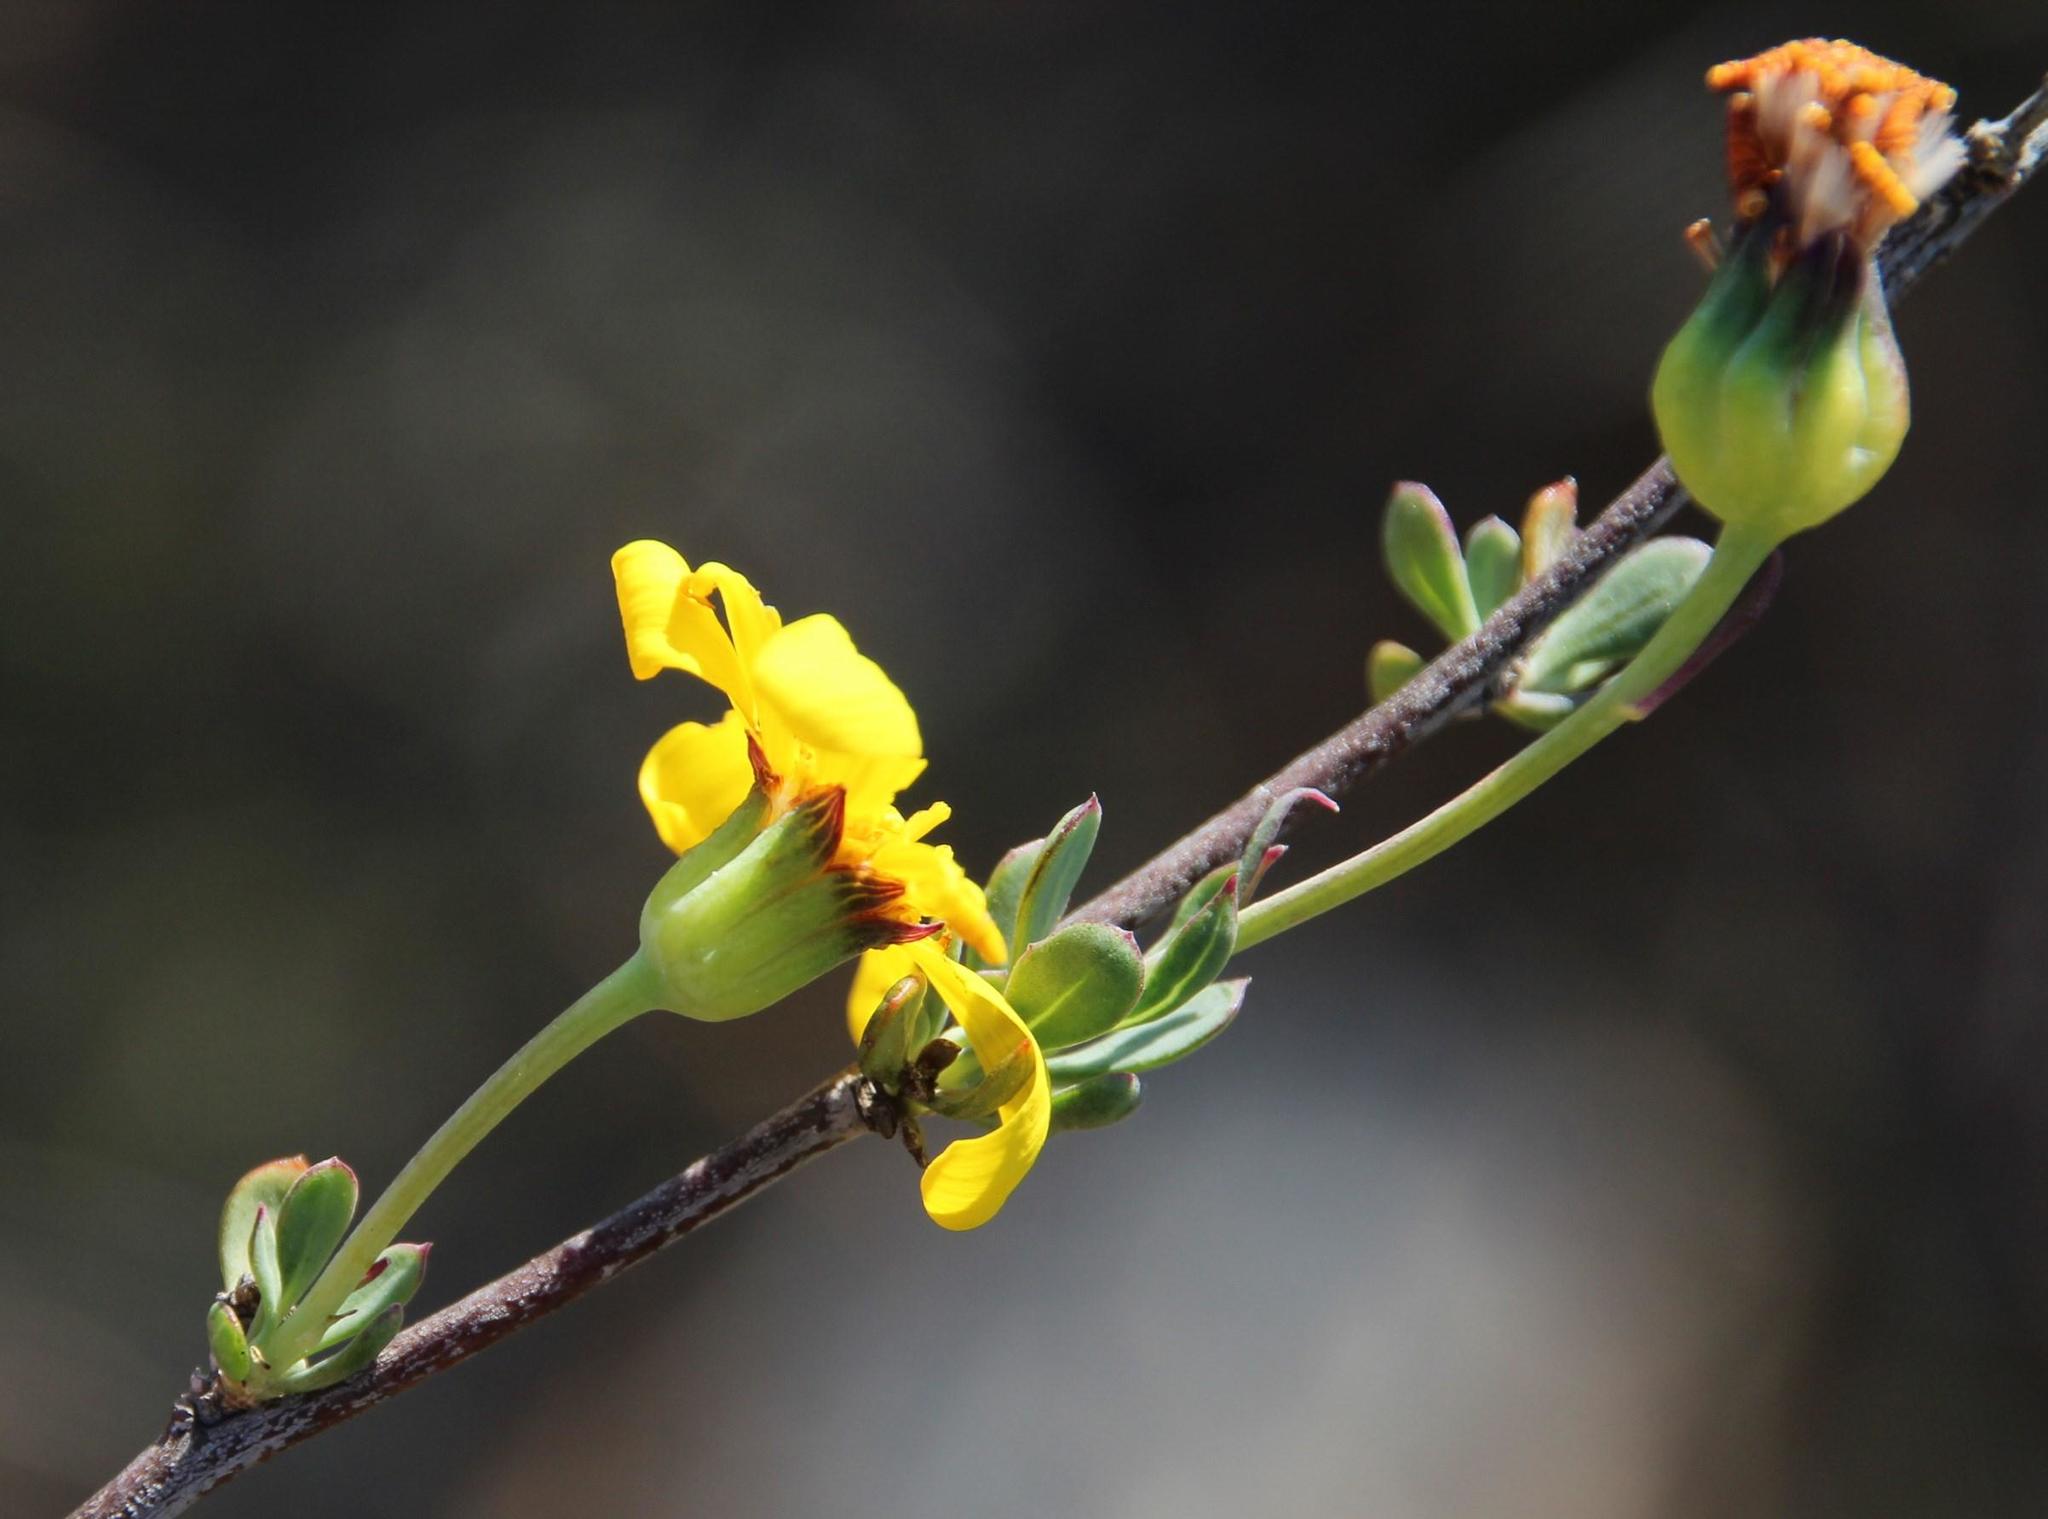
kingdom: Plantae
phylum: Tracheophyta
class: Magnoliopsida
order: Asterales
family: Asteraceae
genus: Othonna
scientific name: Othonna ramulosa
